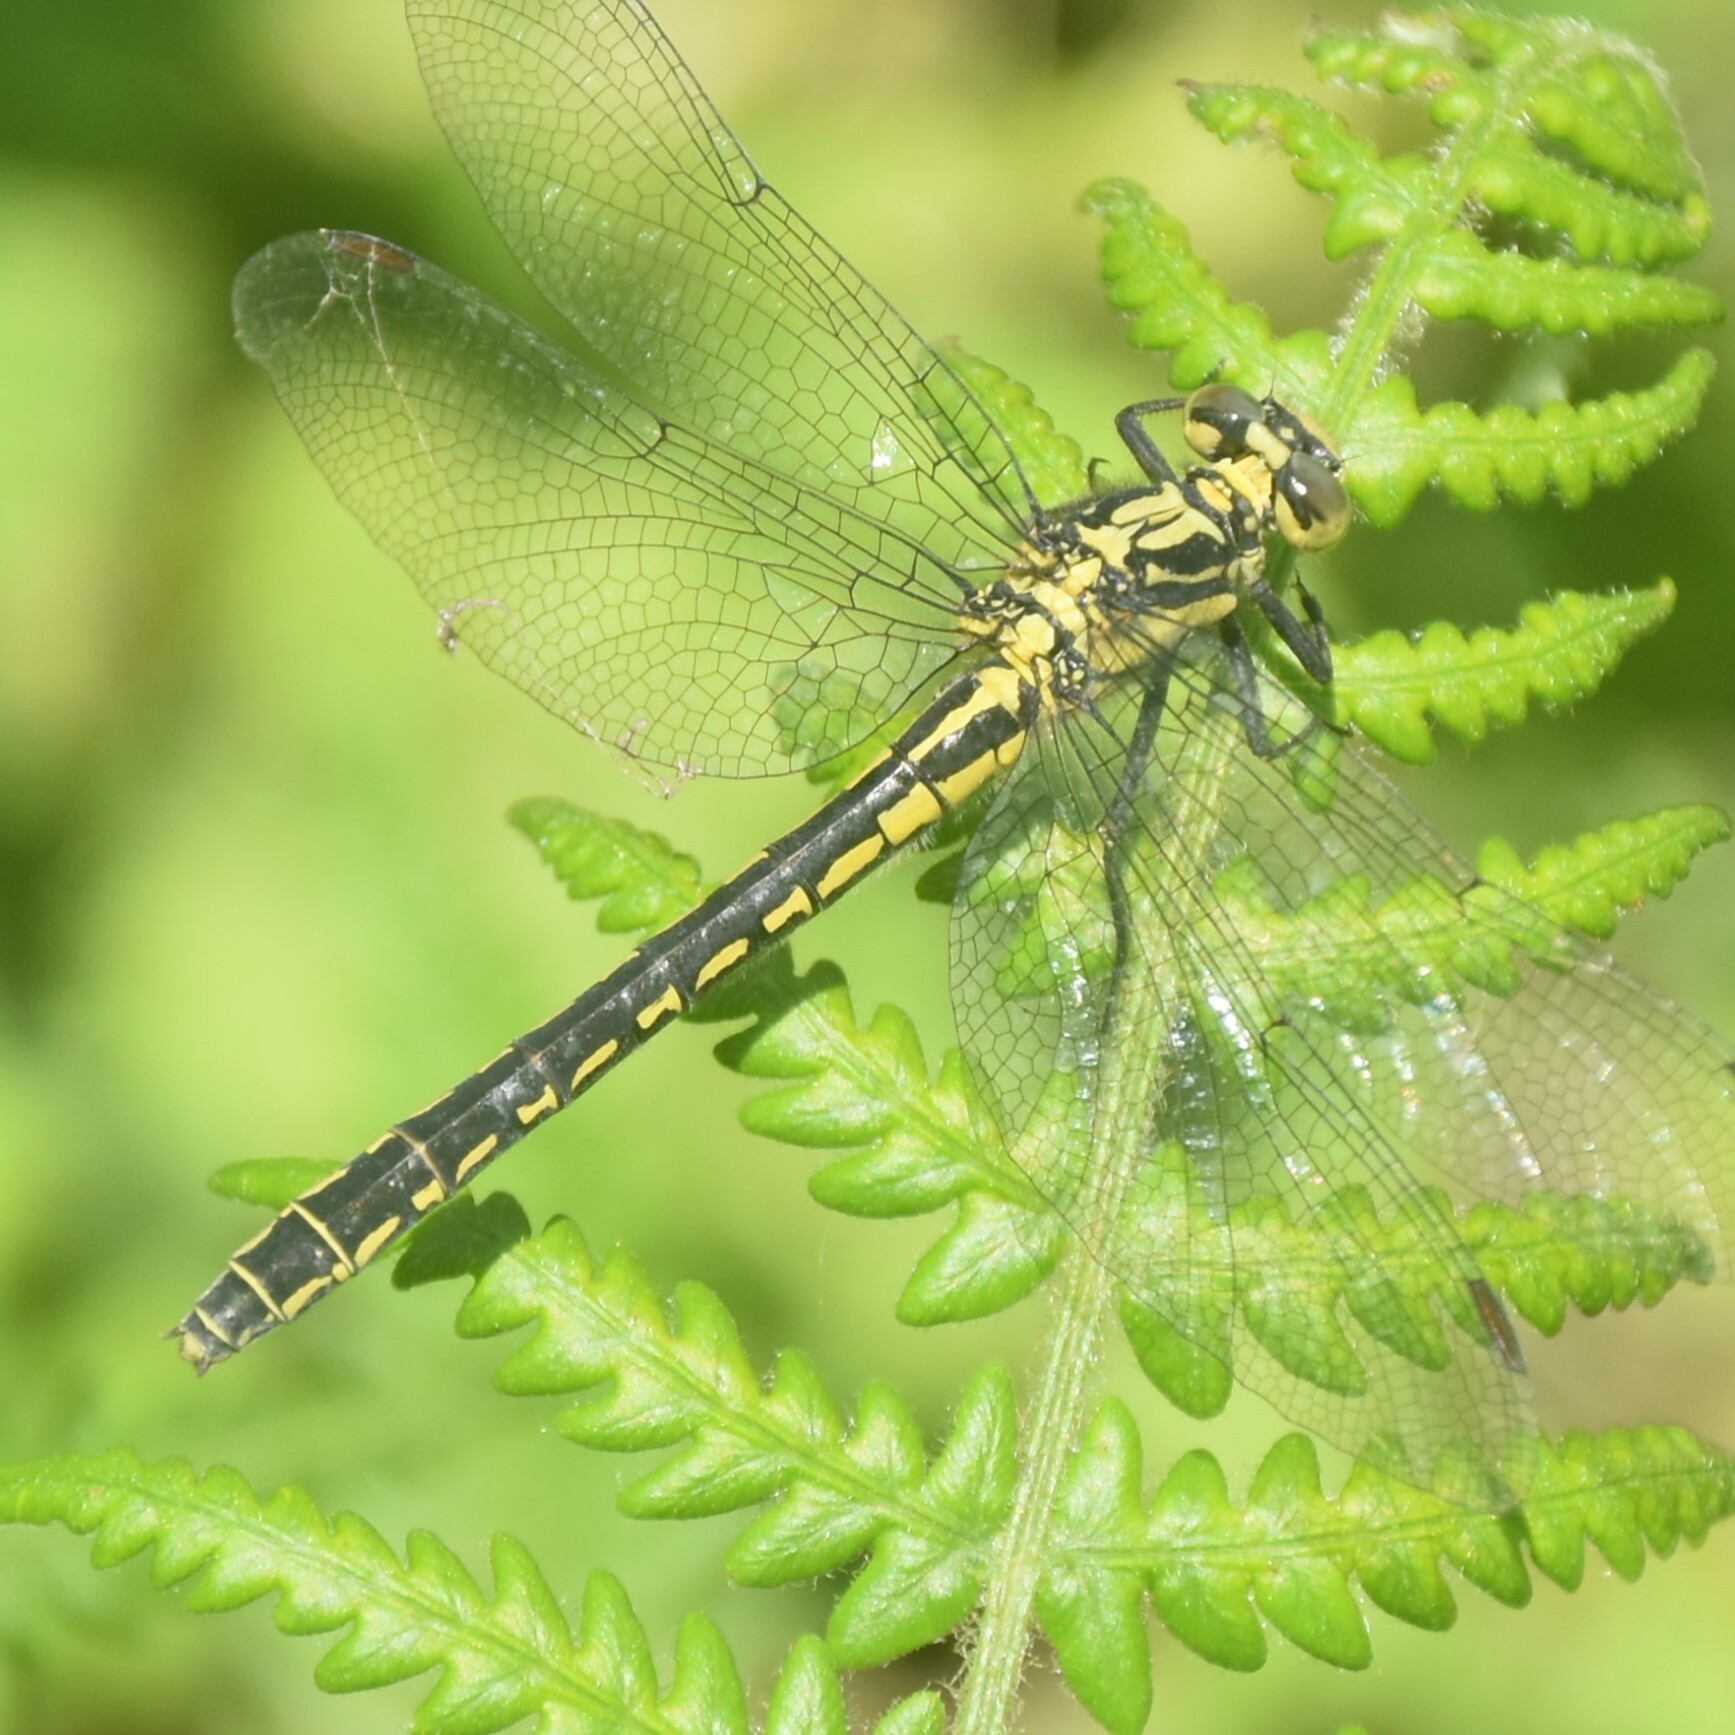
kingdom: Animalia
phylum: Arthropoda
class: Insecta
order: Odonata
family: Gomphidae
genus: Davidius
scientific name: Davidius aberrans
